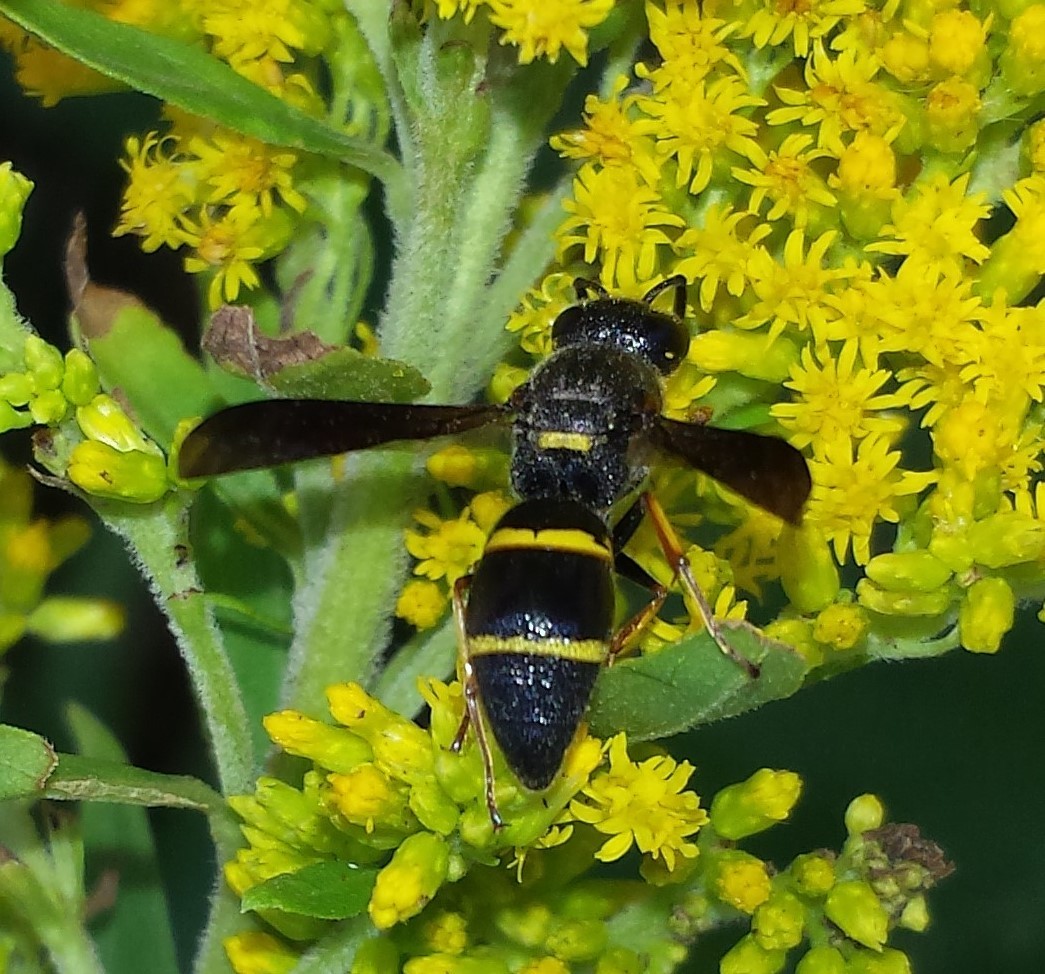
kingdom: Animalia
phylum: Arthropoda
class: Insecta
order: Hymenoptera
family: Eumenidae
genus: Euodynerus
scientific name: Euodynerus
